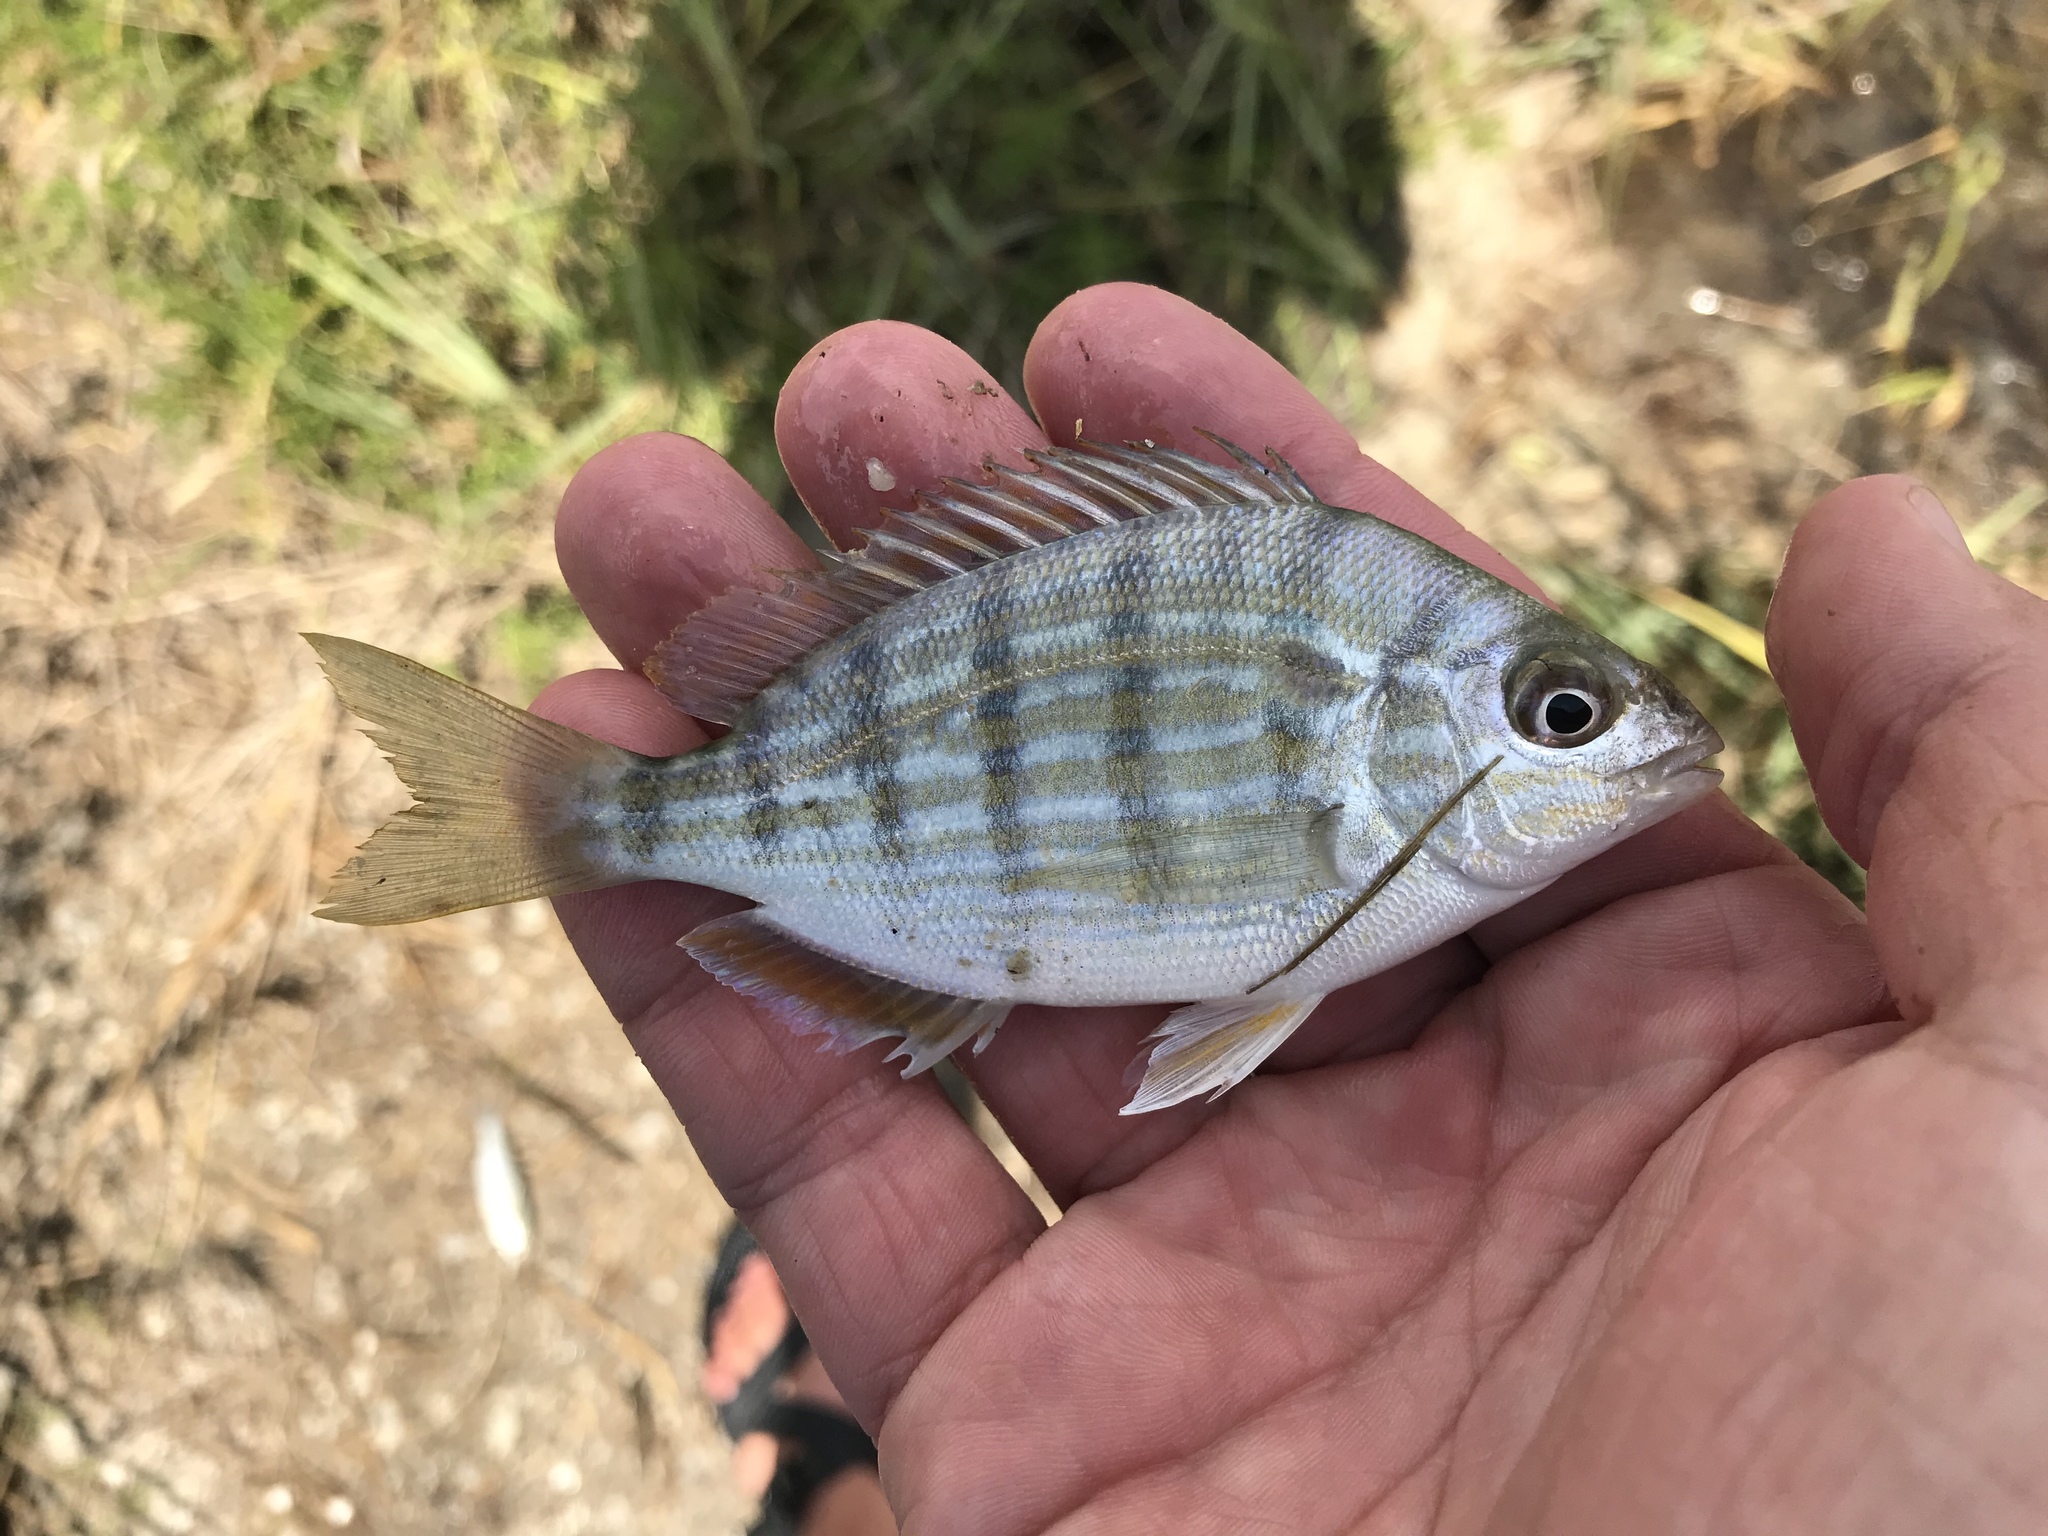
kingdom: Animalia
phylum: Chordata
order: Perciformes
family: Sparidae
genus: Lagodon
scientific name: Lagodon rhomboides
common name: Pinfish
